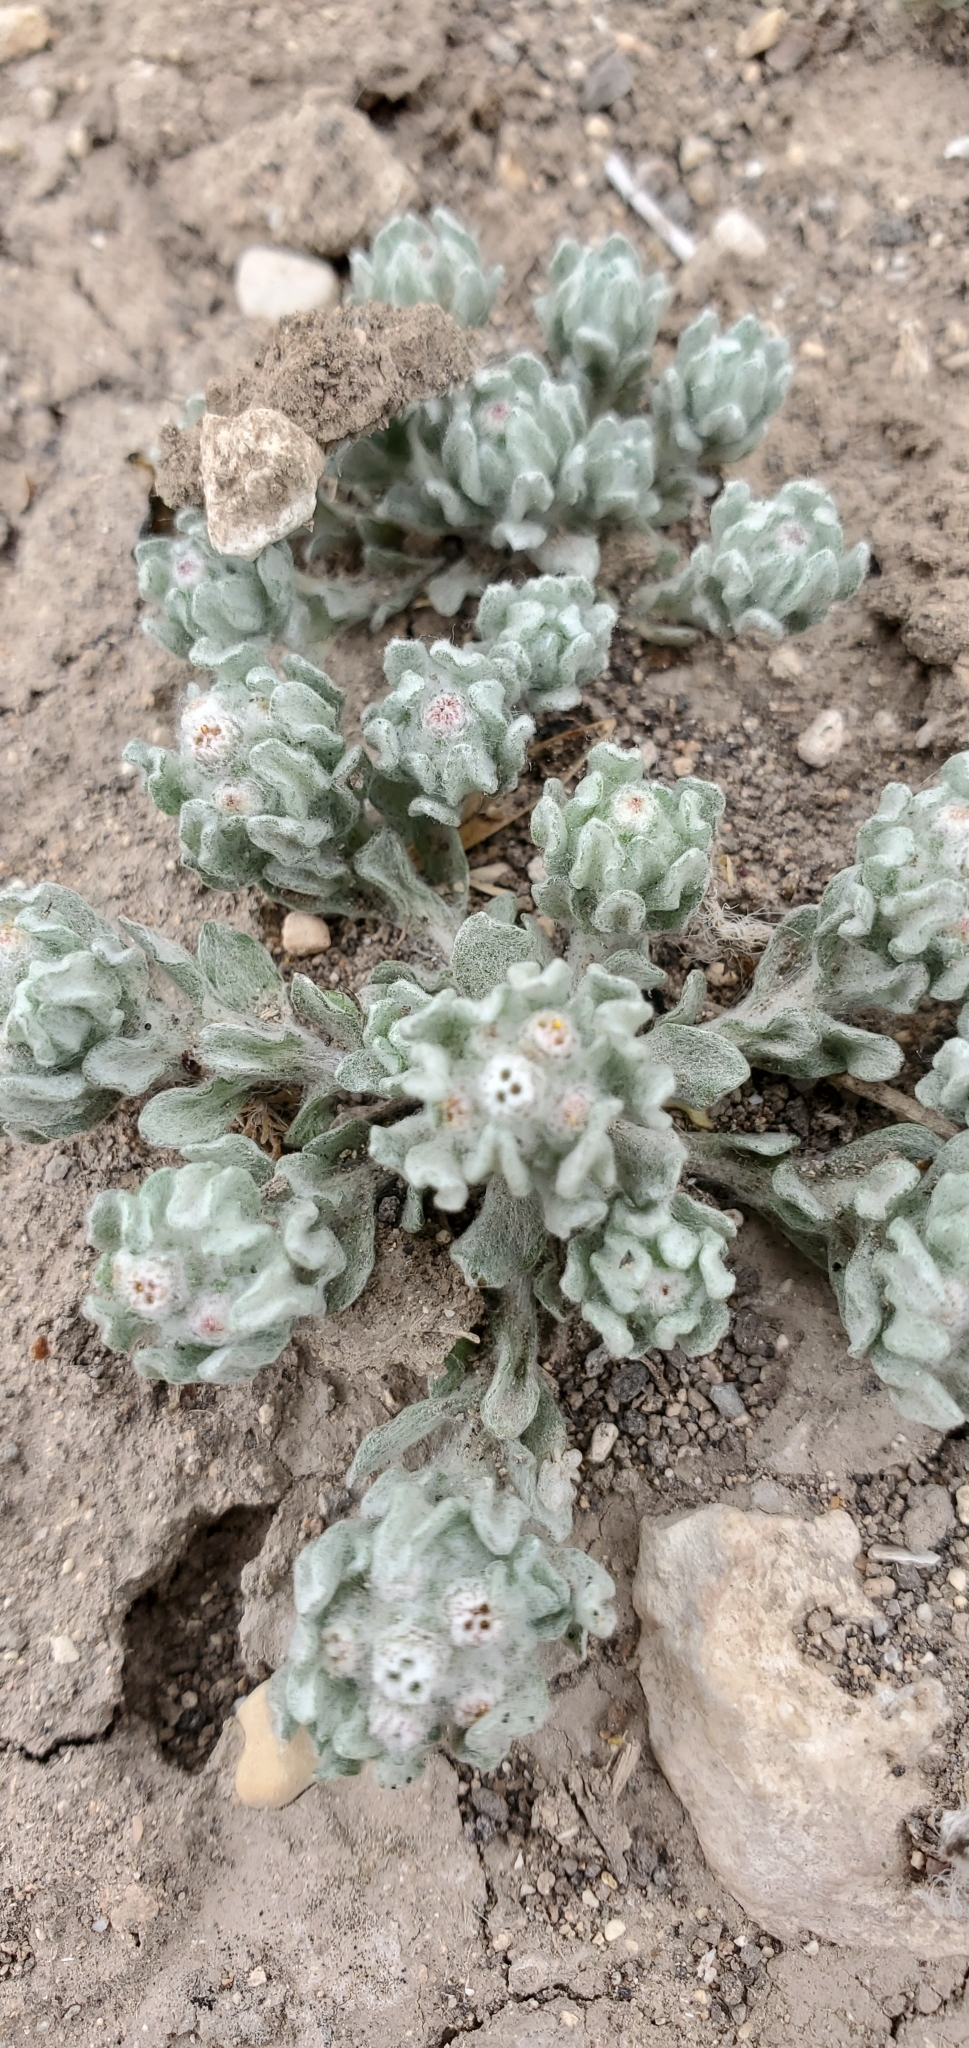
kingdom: Plantae
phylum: Tracheophyta
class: Magnoliopsida
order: Asterales
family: Asteraceae
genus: Diaperia
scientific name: Diaperia verna
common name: Many-stem rabbit-tobacco
